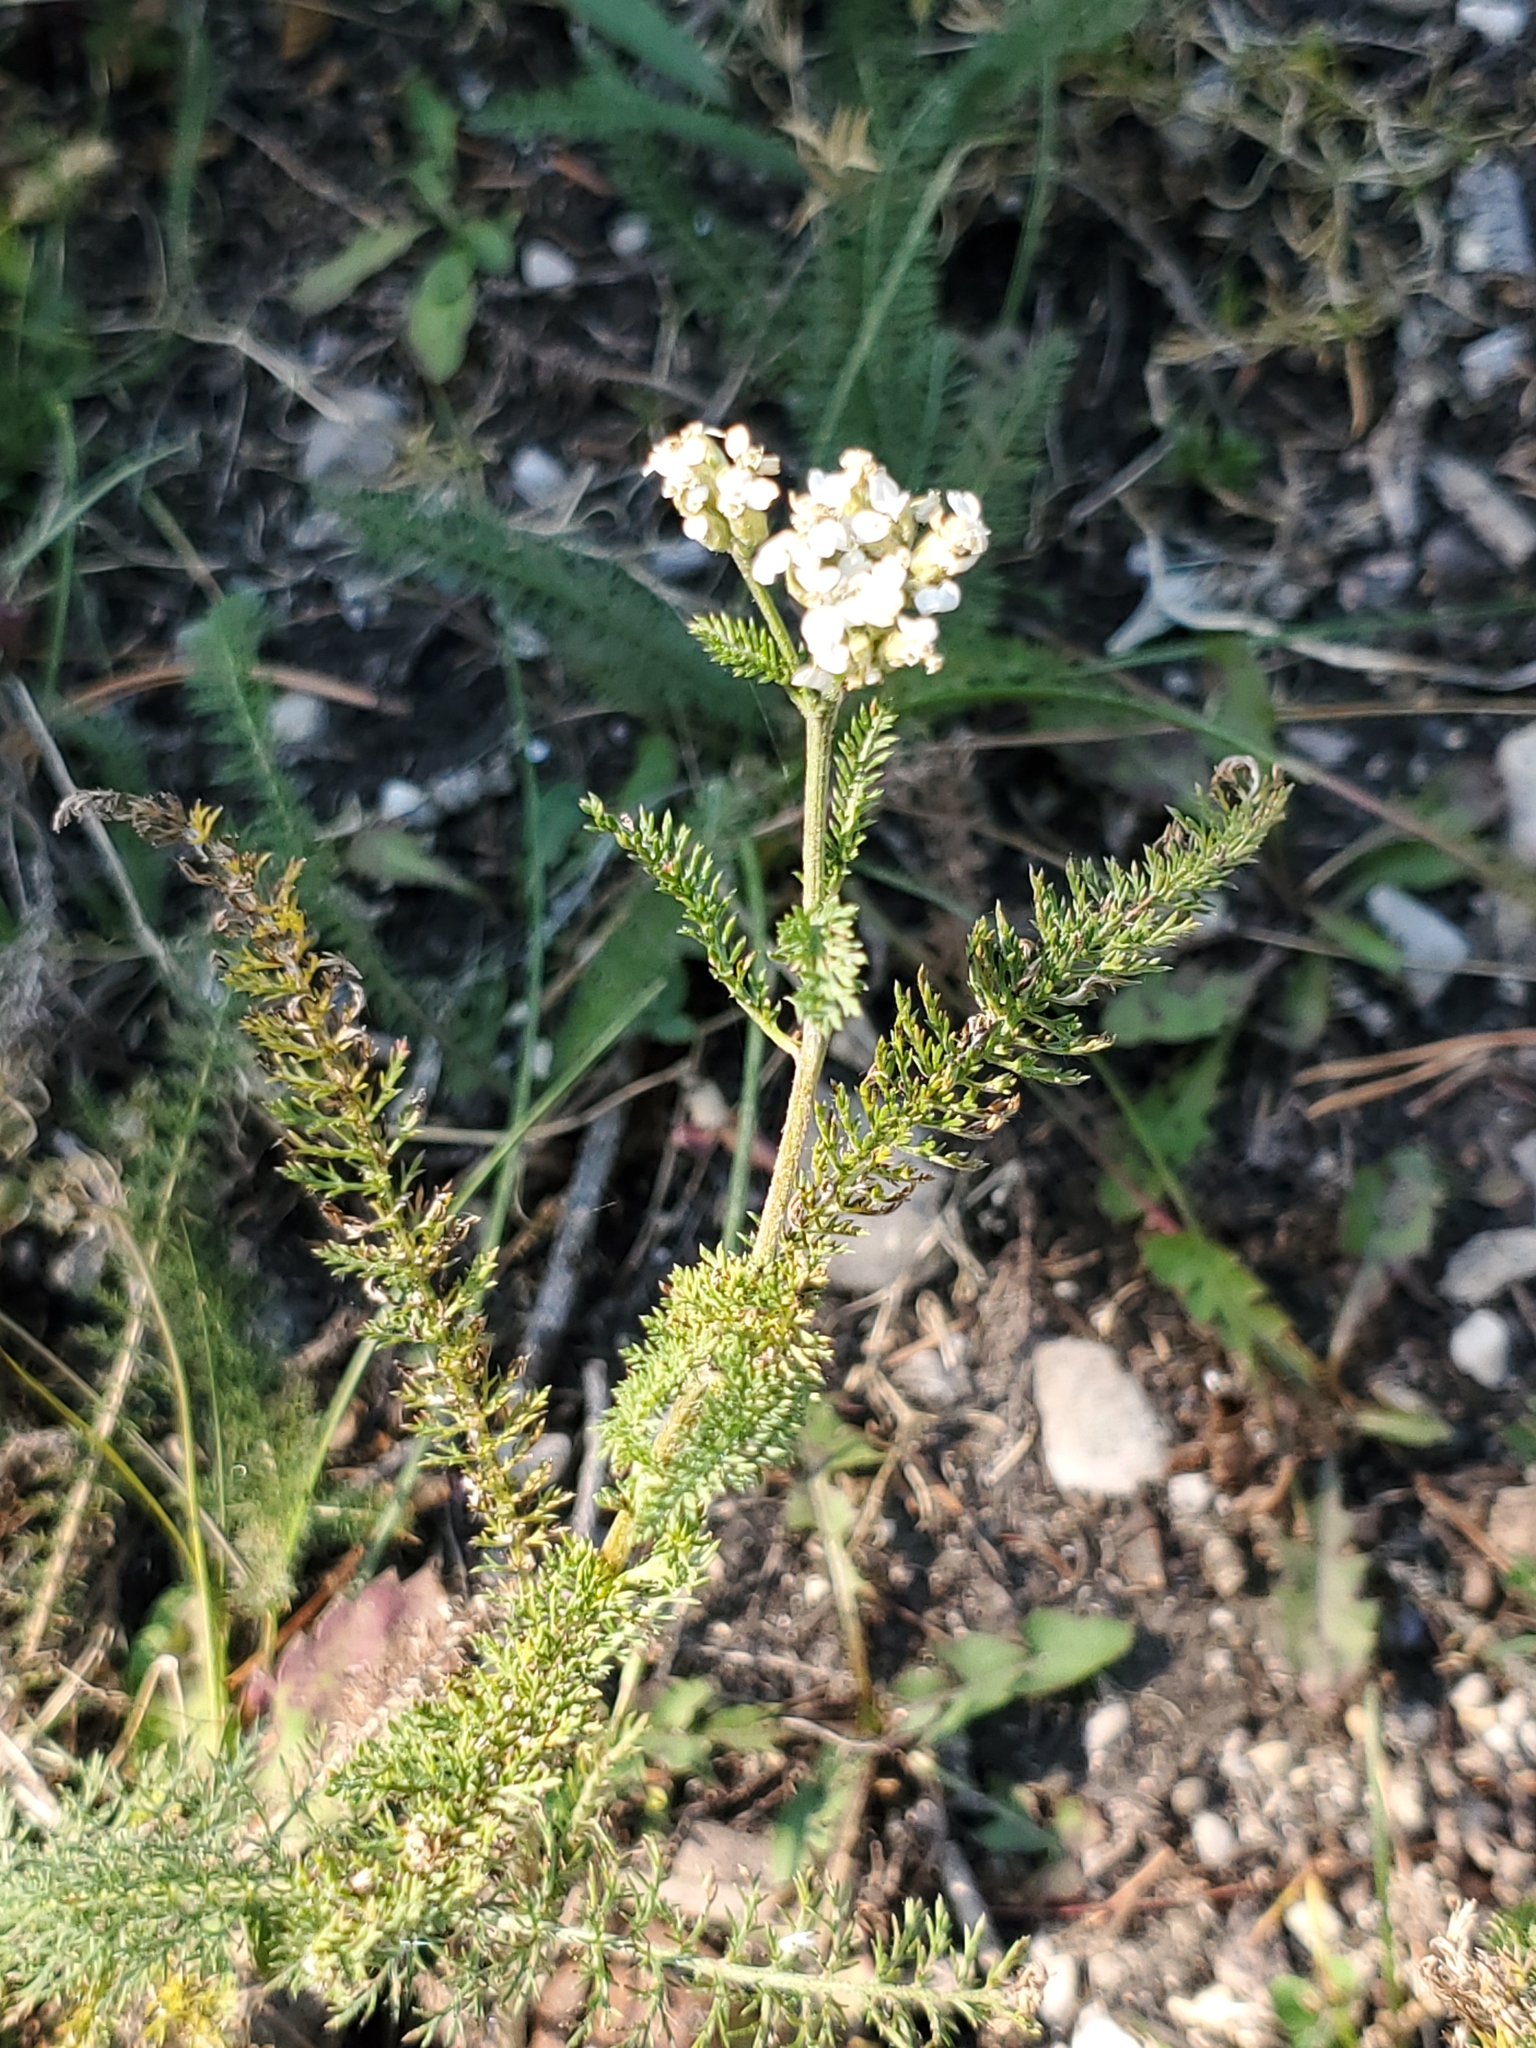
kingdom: Plantae
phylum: Tracheophyta
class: Magnoliopsida
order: Asterales
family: Asteraceae
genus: Achillea
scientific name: Achillea millefolium
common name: Yarrow
